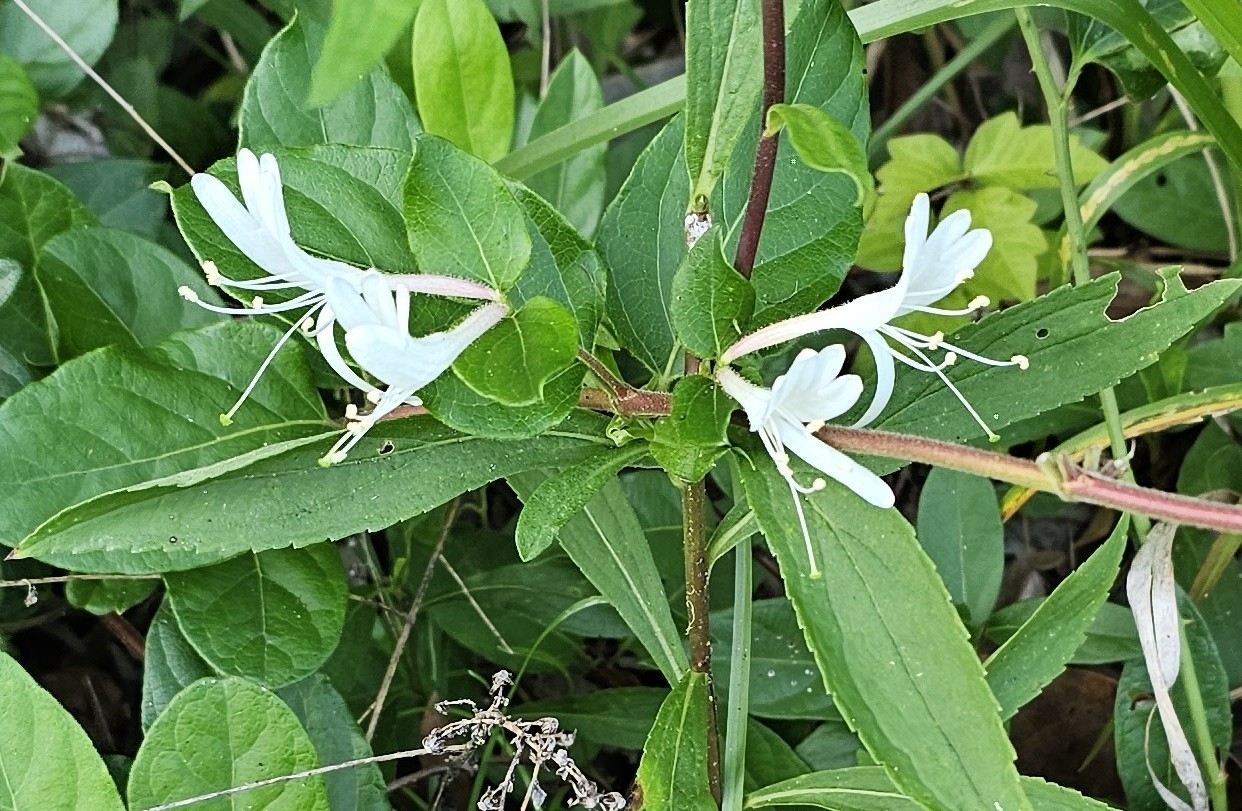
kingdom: Plantae
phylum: Tracheophyta
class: Magnoliopsida
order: Dipsacales
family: Caprifoliaceae
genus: Lonicera
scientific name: Lonicera japonica
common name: Japanese honeysuckle
